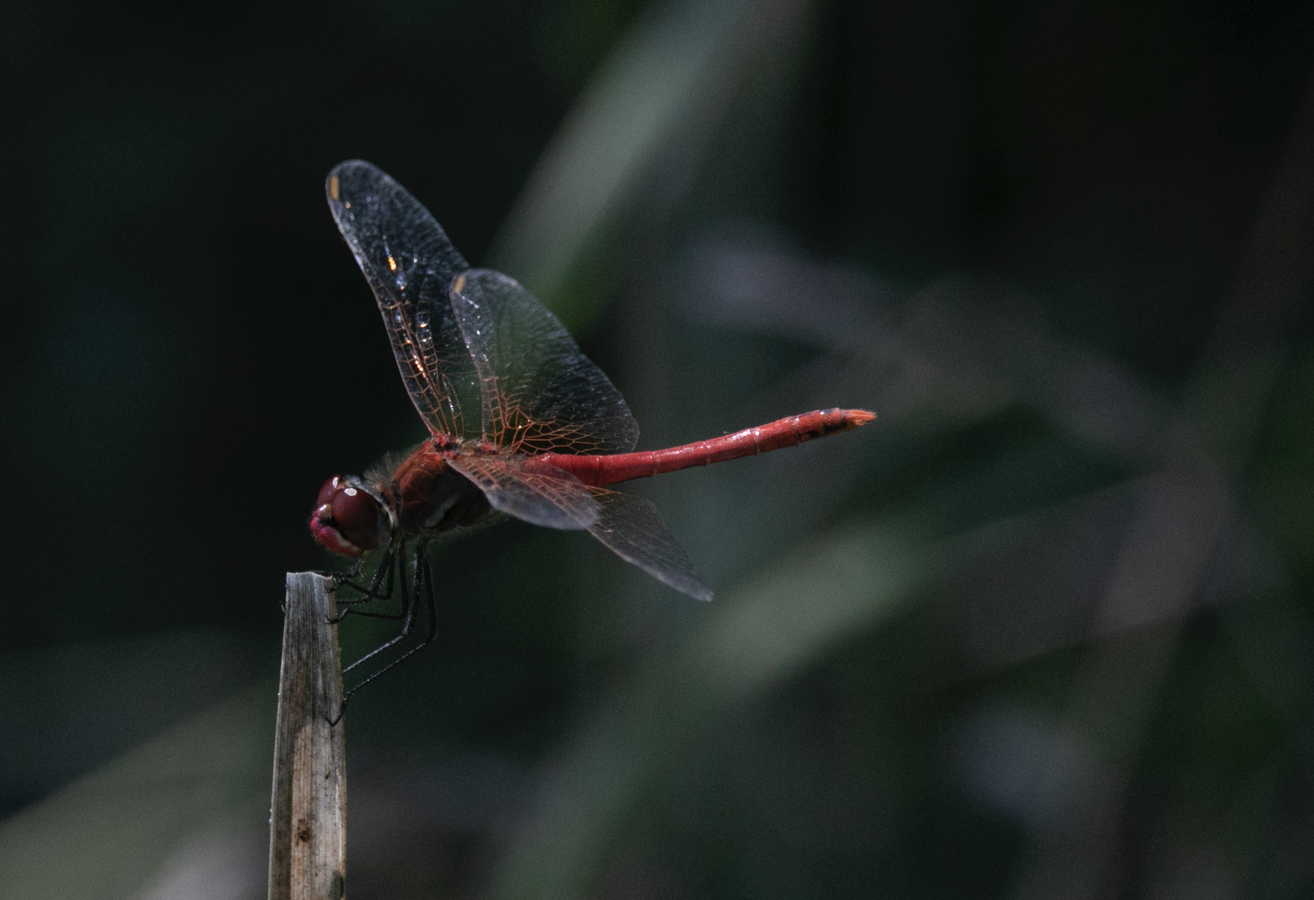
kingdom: Animalia
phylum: Arthropoda
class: Insecta
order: Odonata
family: Libellulidae
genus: Sympetrum
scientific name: Sympetrum fonscolombii
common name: Red-veined darter
